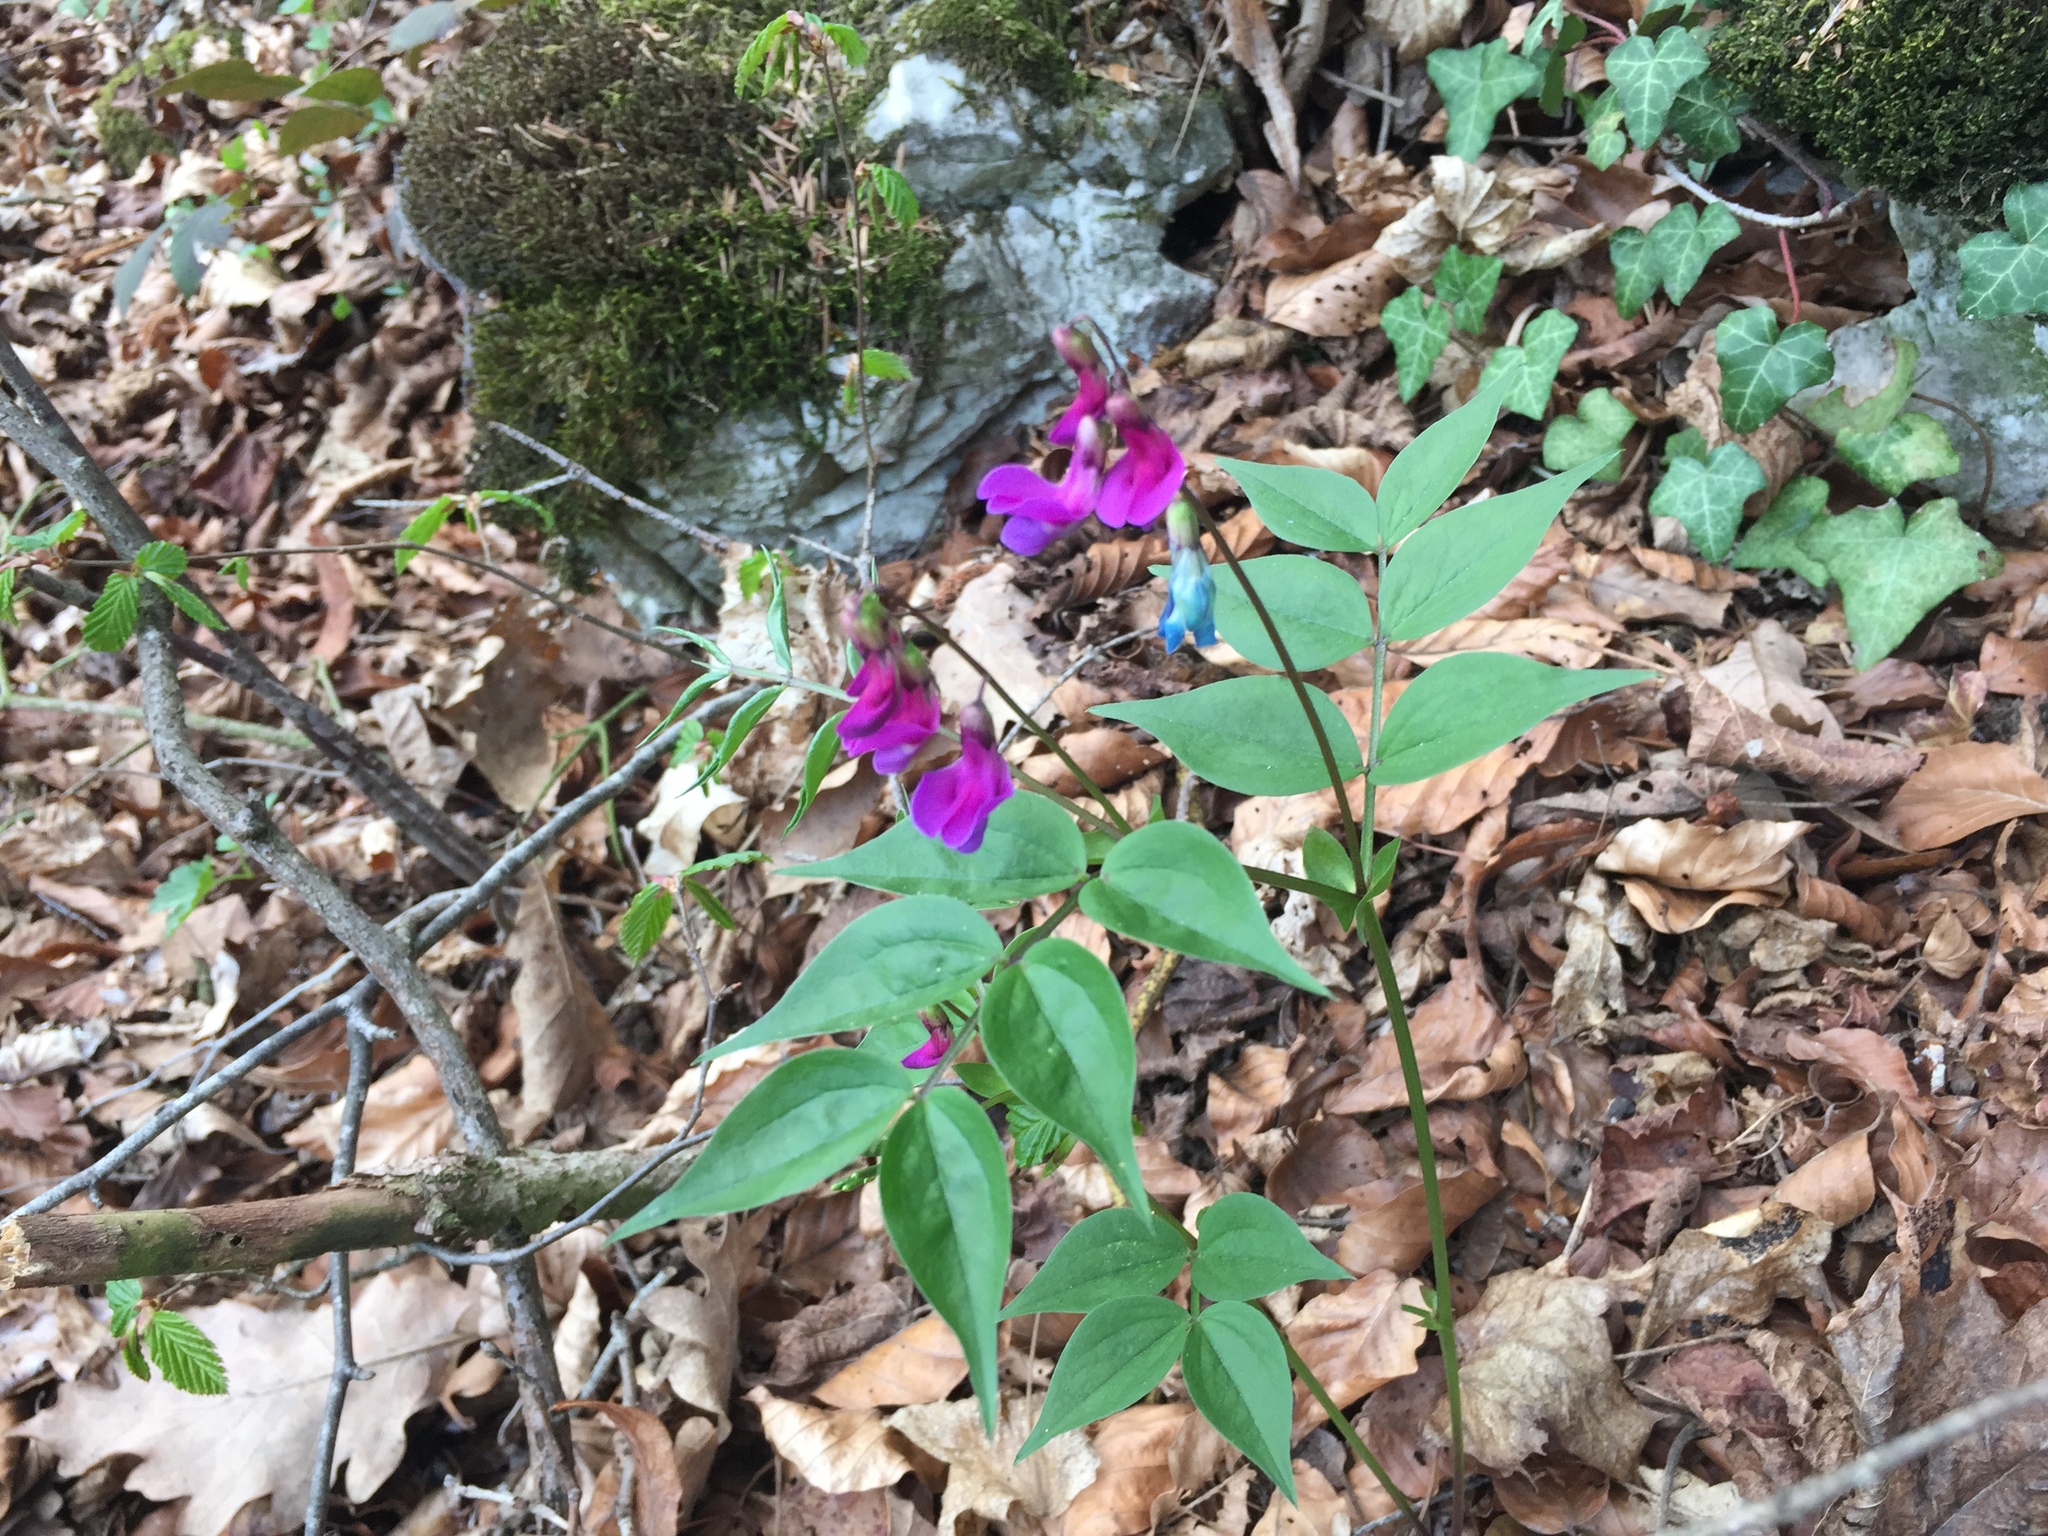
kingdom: Plantae
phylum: Tracheophyta
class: Magnoliopsida
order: Fabales
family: Fabaceae
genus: Lathyrus
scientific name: Lathyrus vernus
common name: Spring pea
